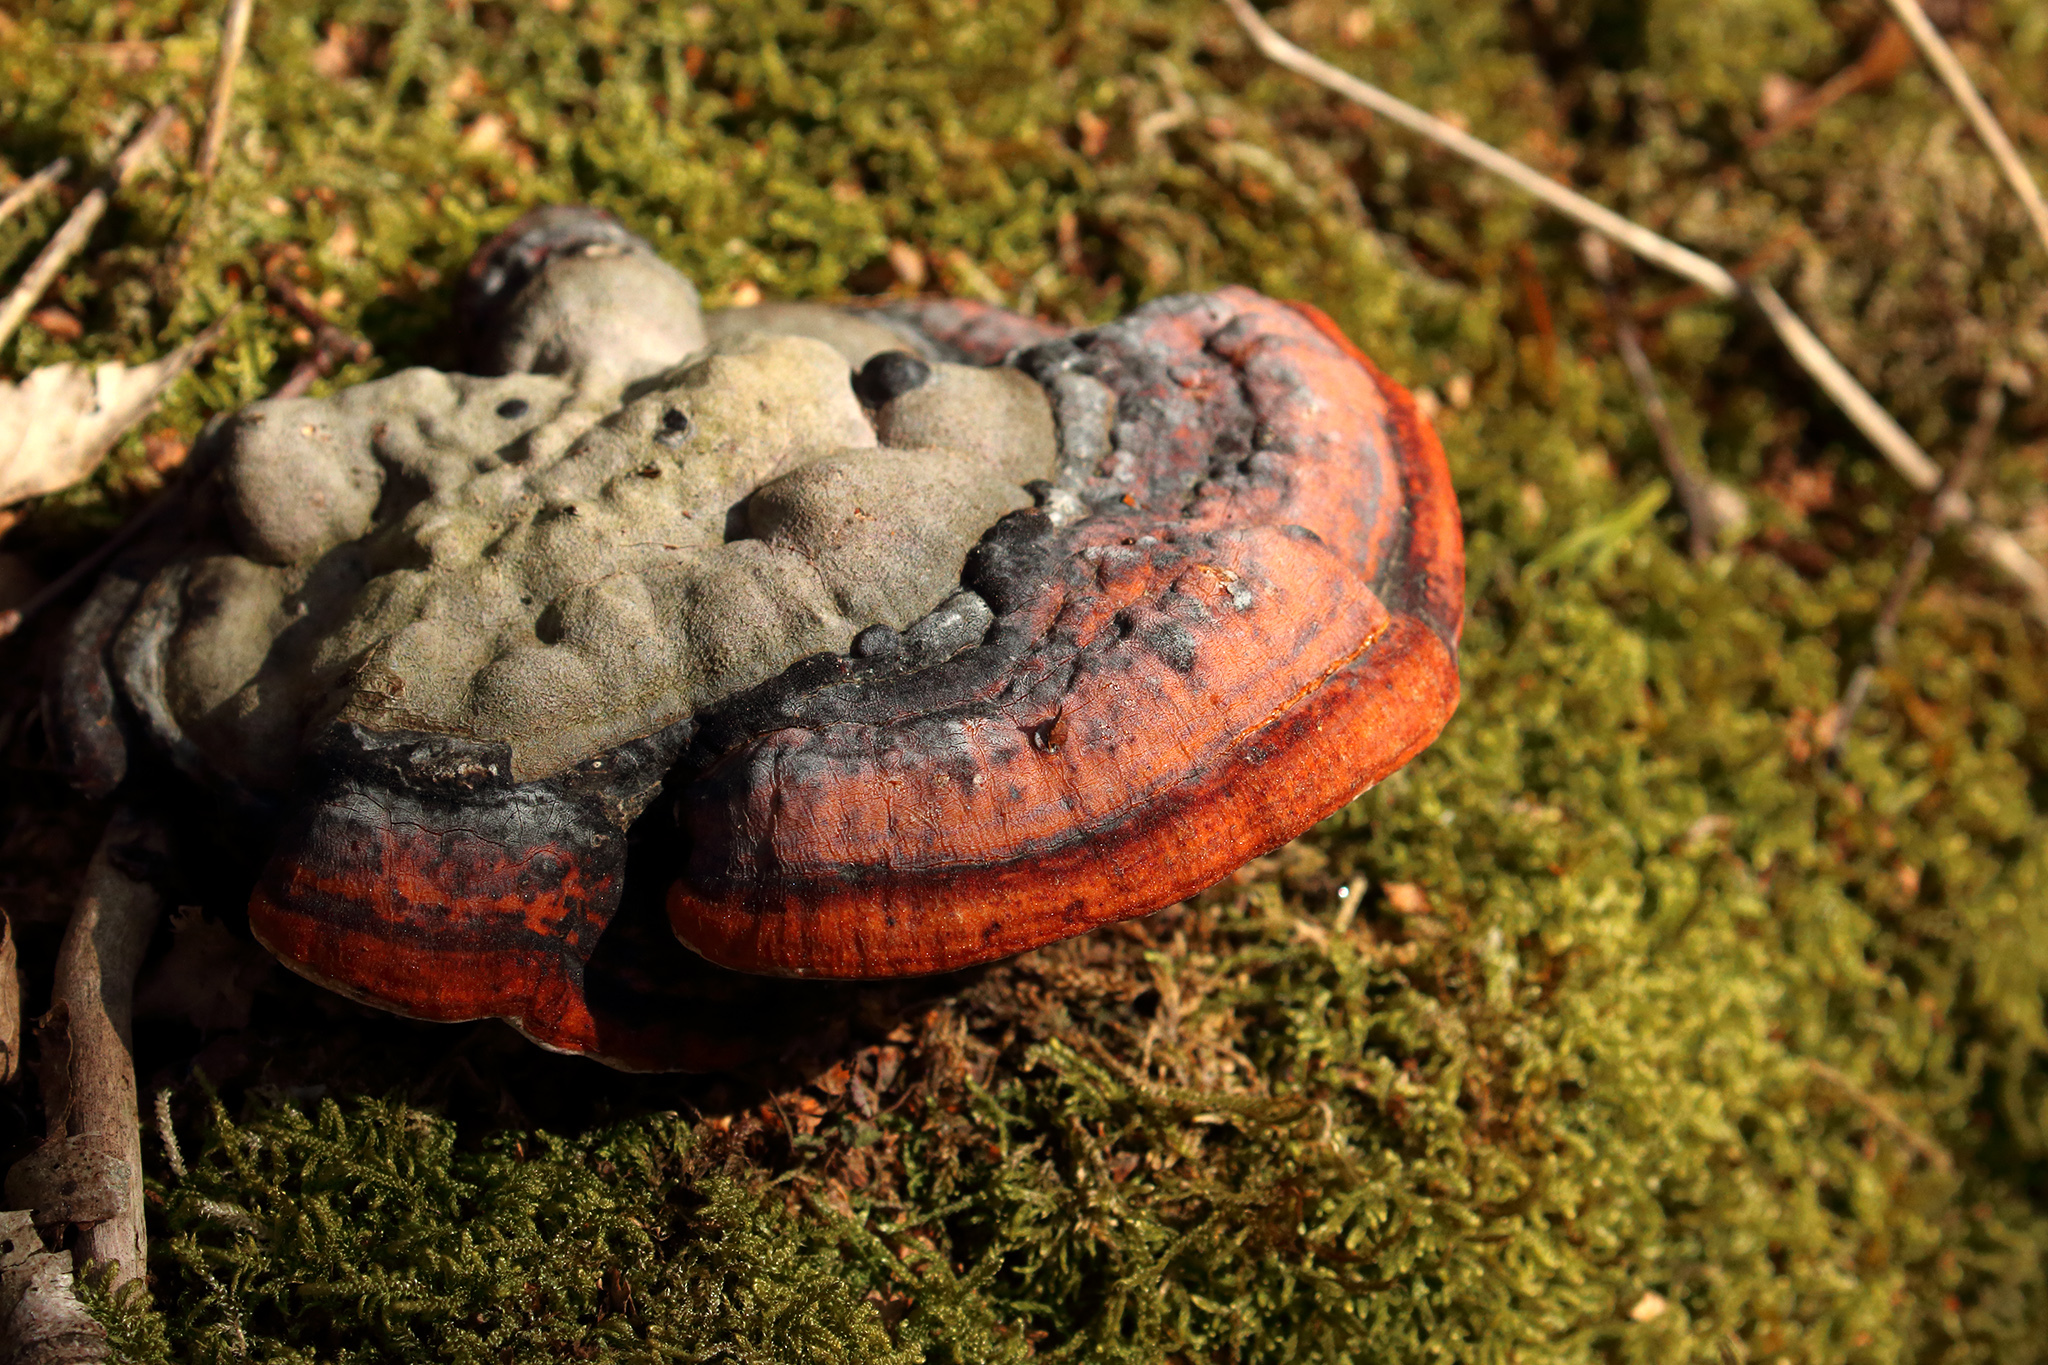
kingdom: Fungi
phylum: Basidiomycota
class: Agaricomycetes
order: Polyporales
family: Fomitopsidaceae
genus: Fomitopsis
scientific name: Fomitopsis pinicola
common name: Red-belted bracket
